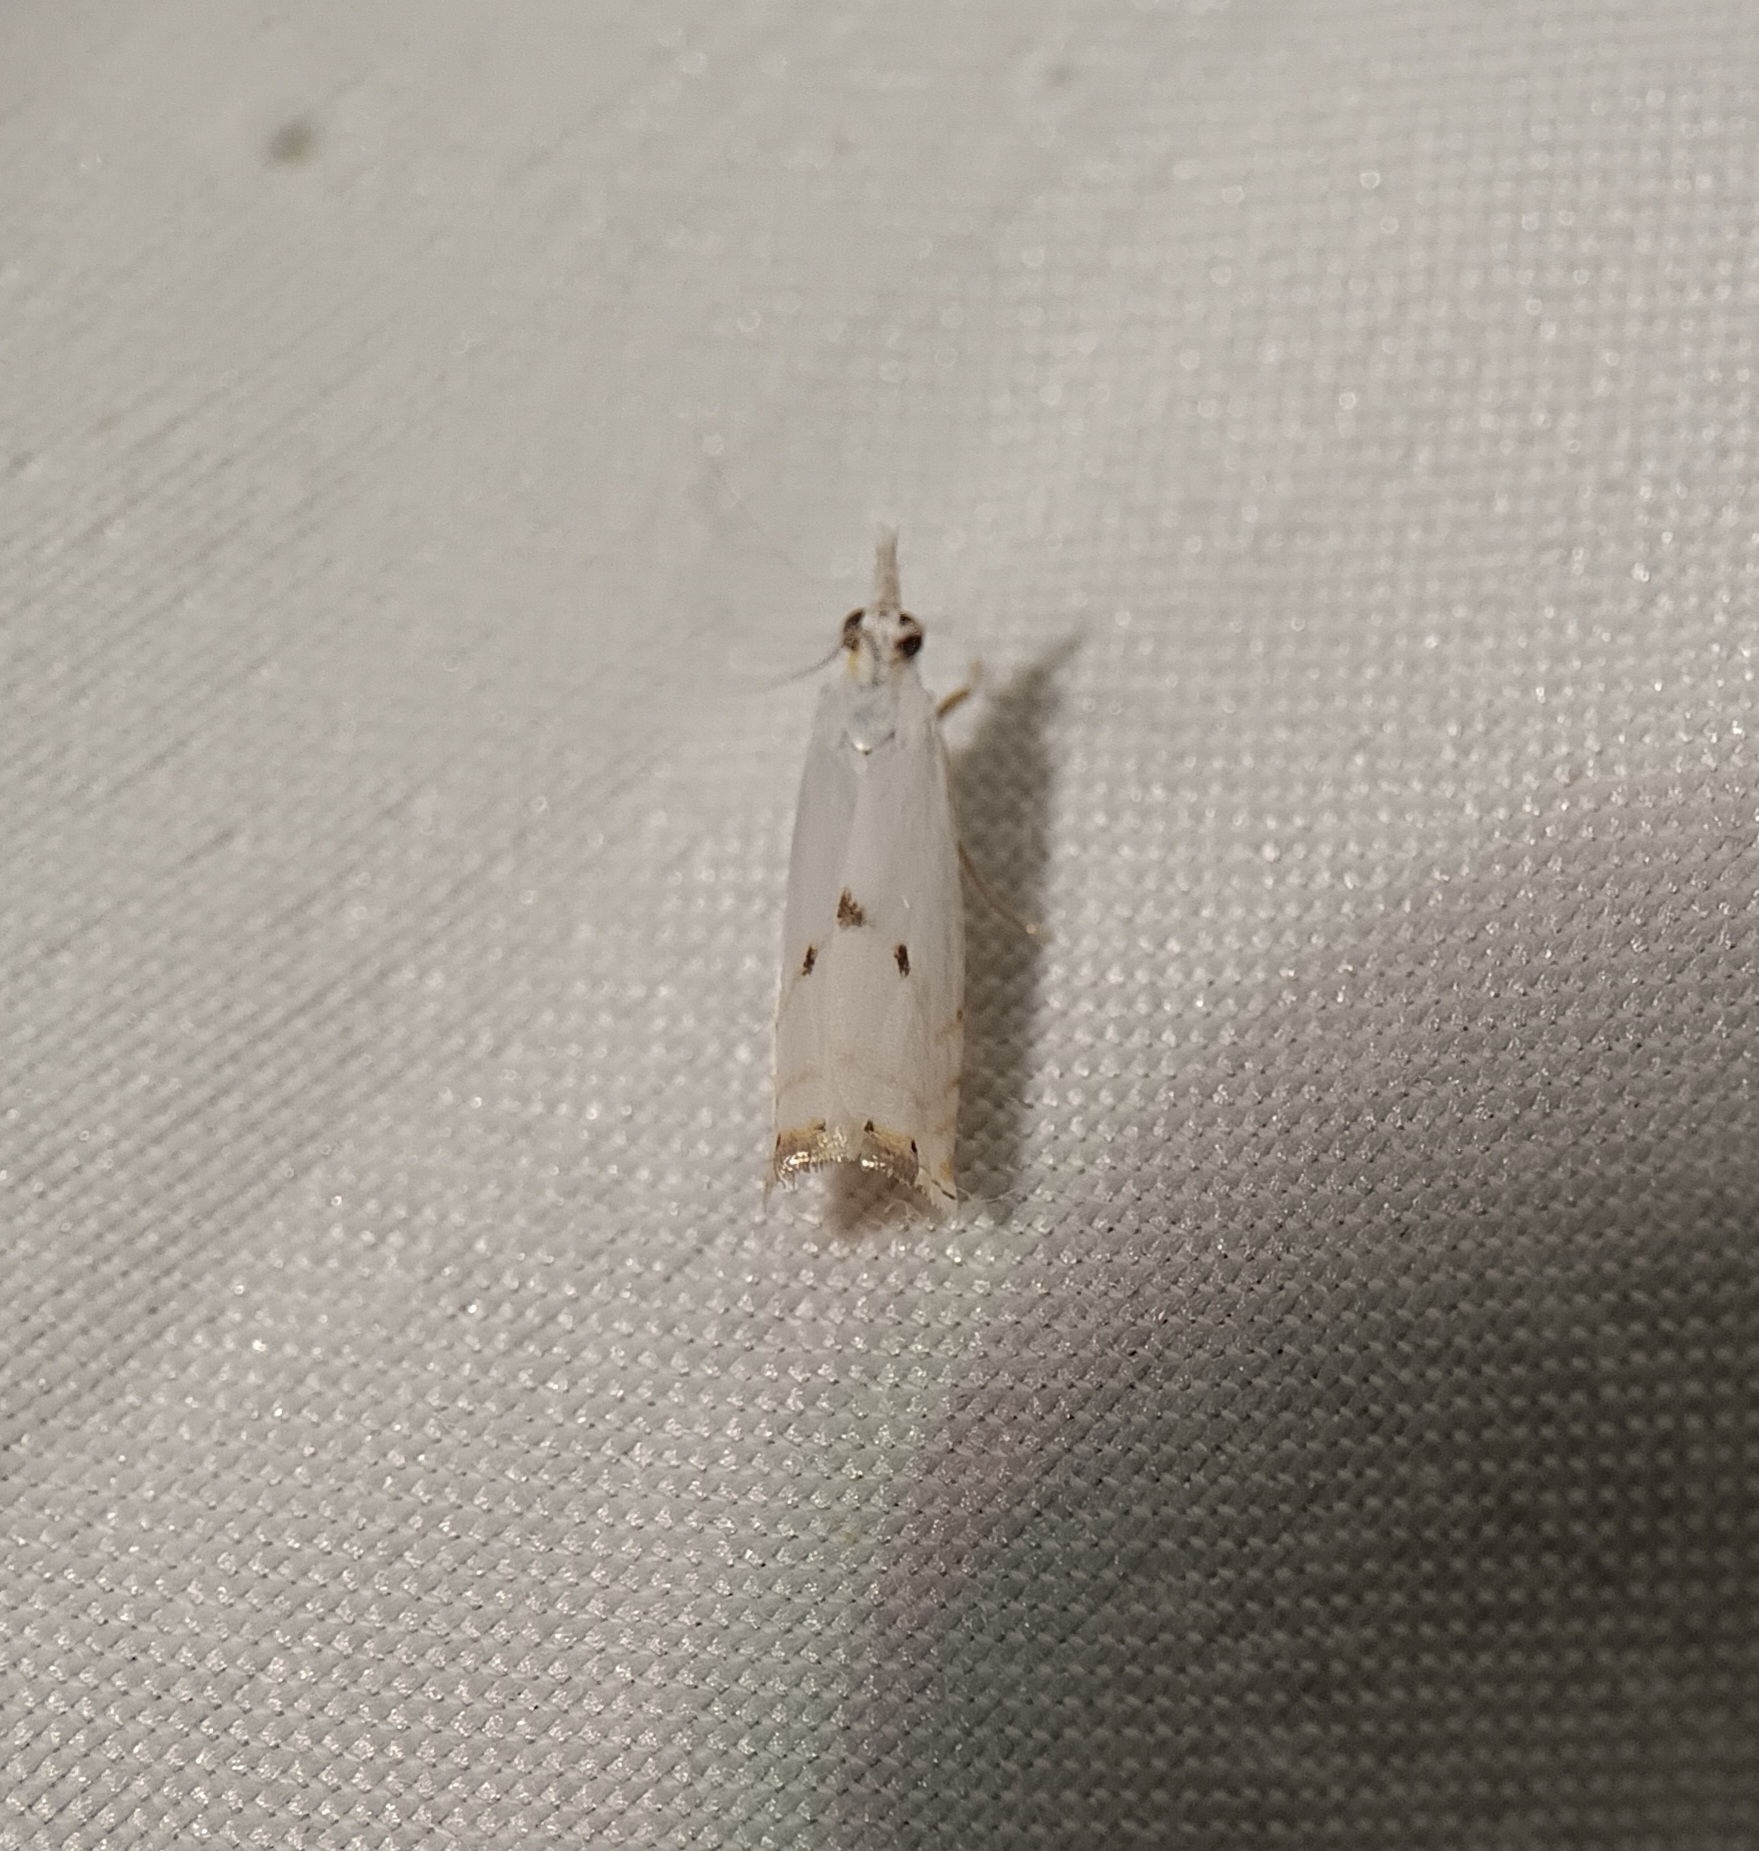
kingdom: Animalia
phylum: Arthropoda
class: Insecta
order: Lepidoptera
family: Crambidae
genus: Microcrambus
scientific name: Microcrambus biguttellus
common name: Gold-stripe grass-veneer moth
